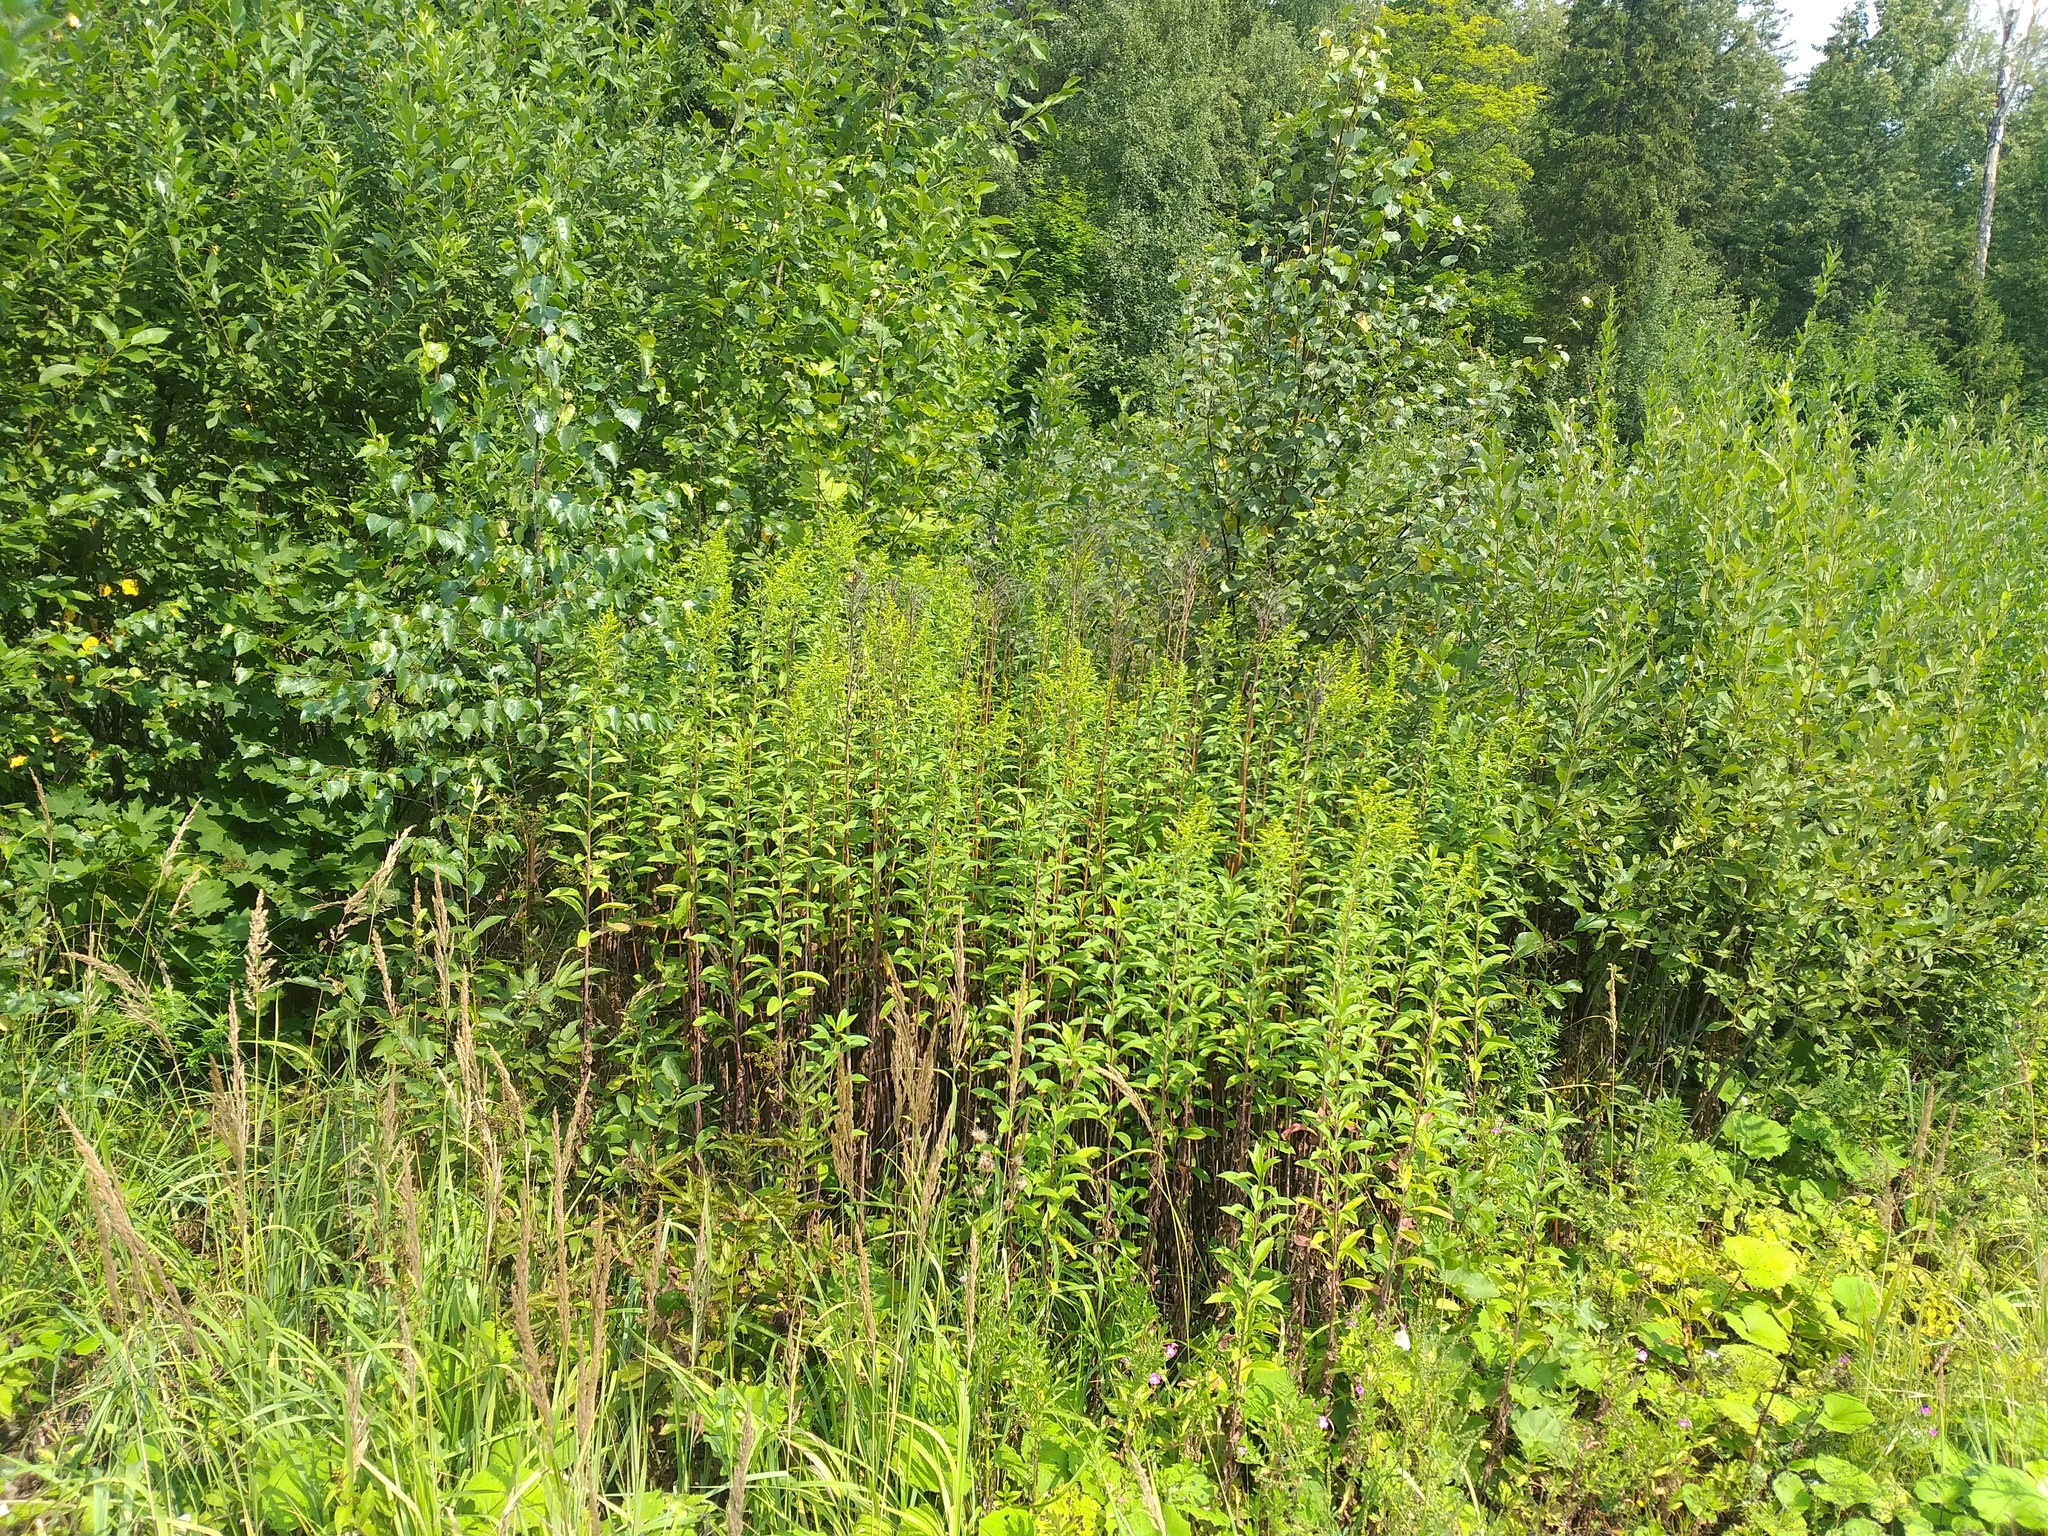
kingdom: Plantae
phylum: Tracheophyta
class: Magnoliopsida
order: Asterales
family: Asteraceae
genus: Solidago
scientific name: Solidago gigantea
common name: Giant goldenrod
